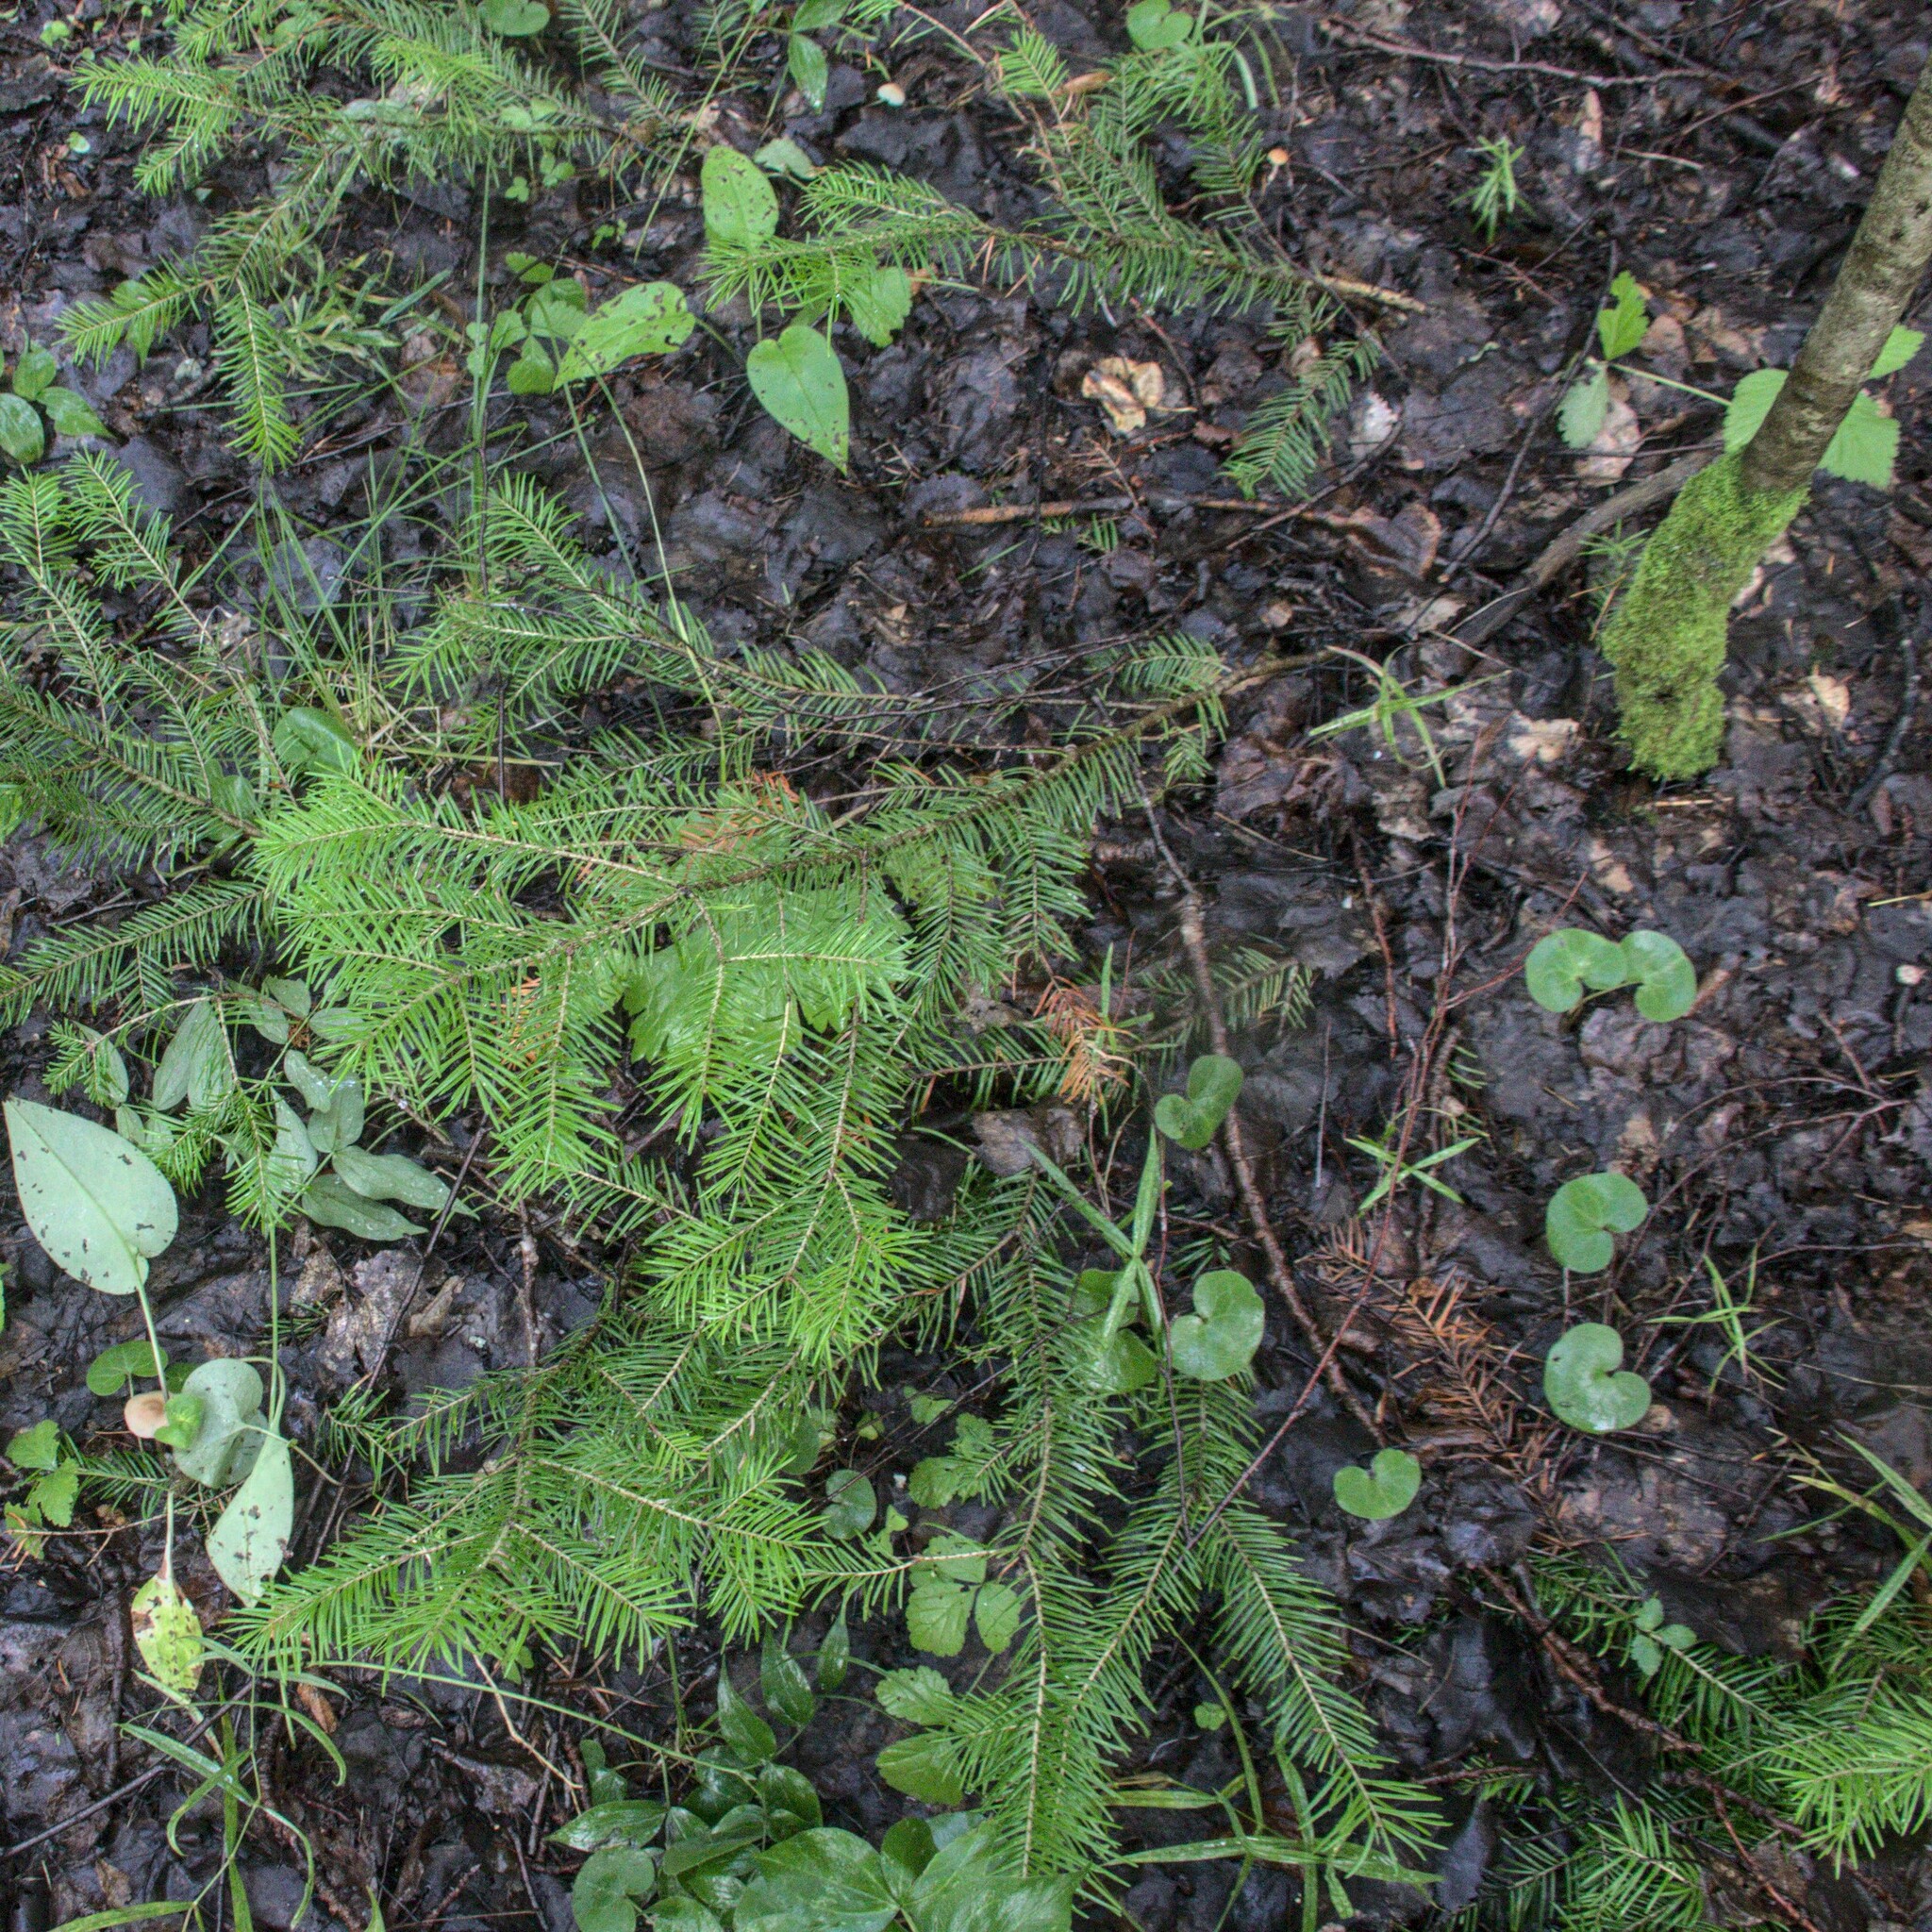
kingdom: Plantae
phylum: Tracheophyta
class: Pinopsida
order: Pinales
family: Pinaceae
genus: Abies
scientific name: Abies sibirica
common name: Siberian fir
